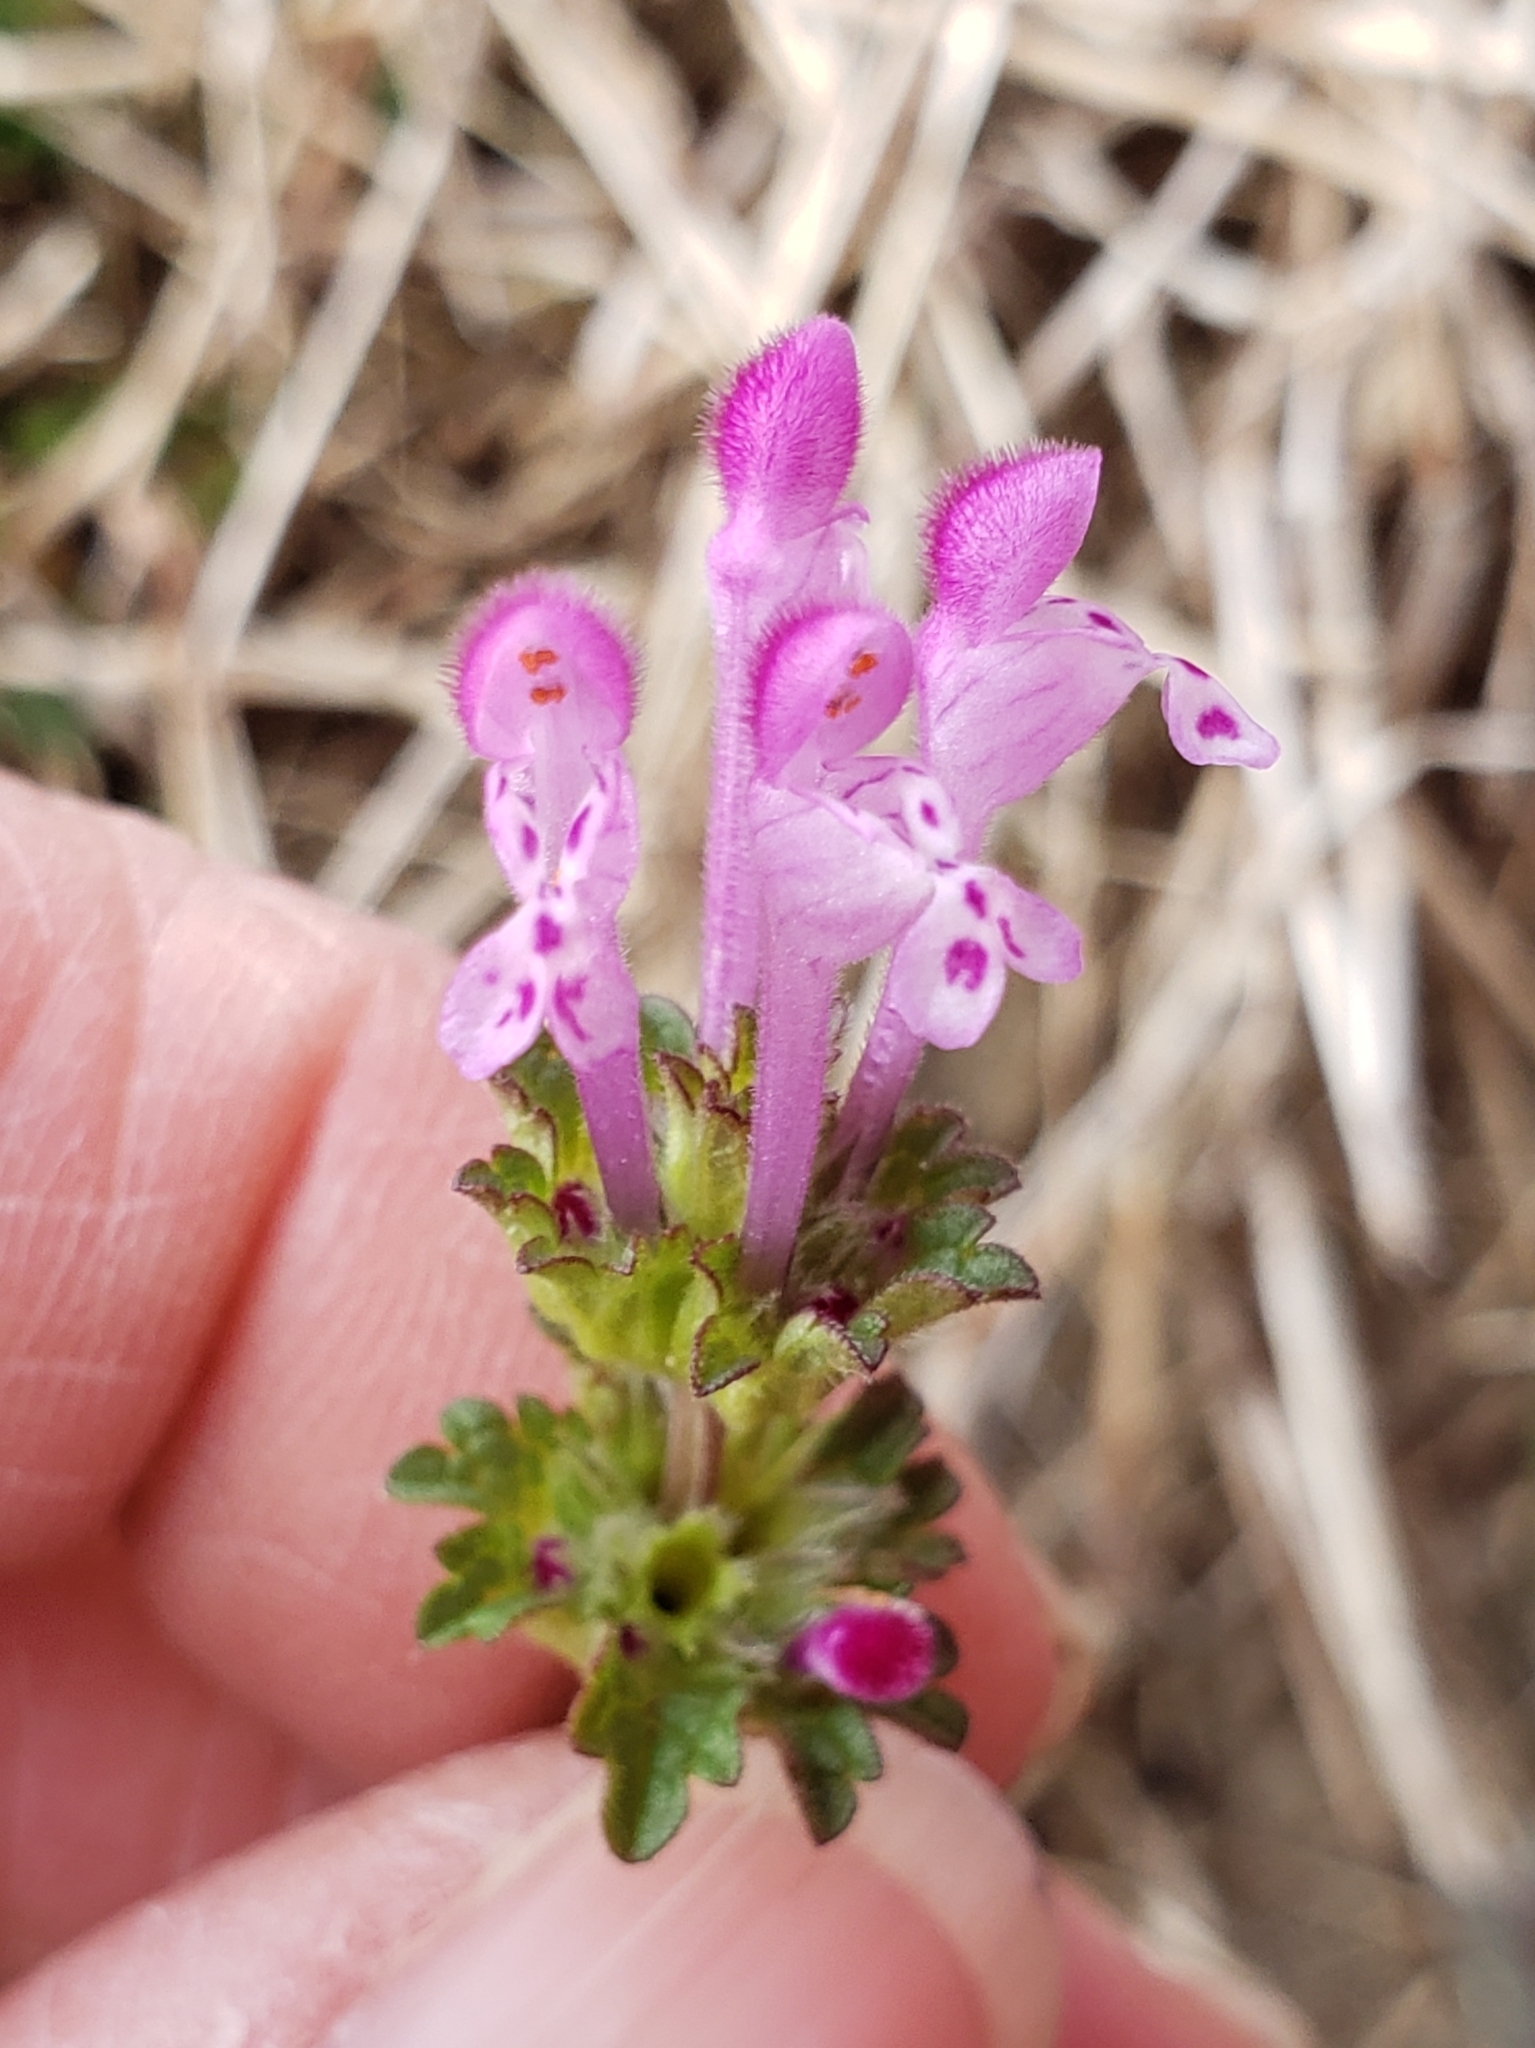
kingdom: Plantae
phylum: Tracheophyta
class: Magnoliopsida
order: Lamiales
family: Lamiaceae
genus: Lamium
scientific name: Lamium amplexicaule
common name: Henbit dead-nettle
